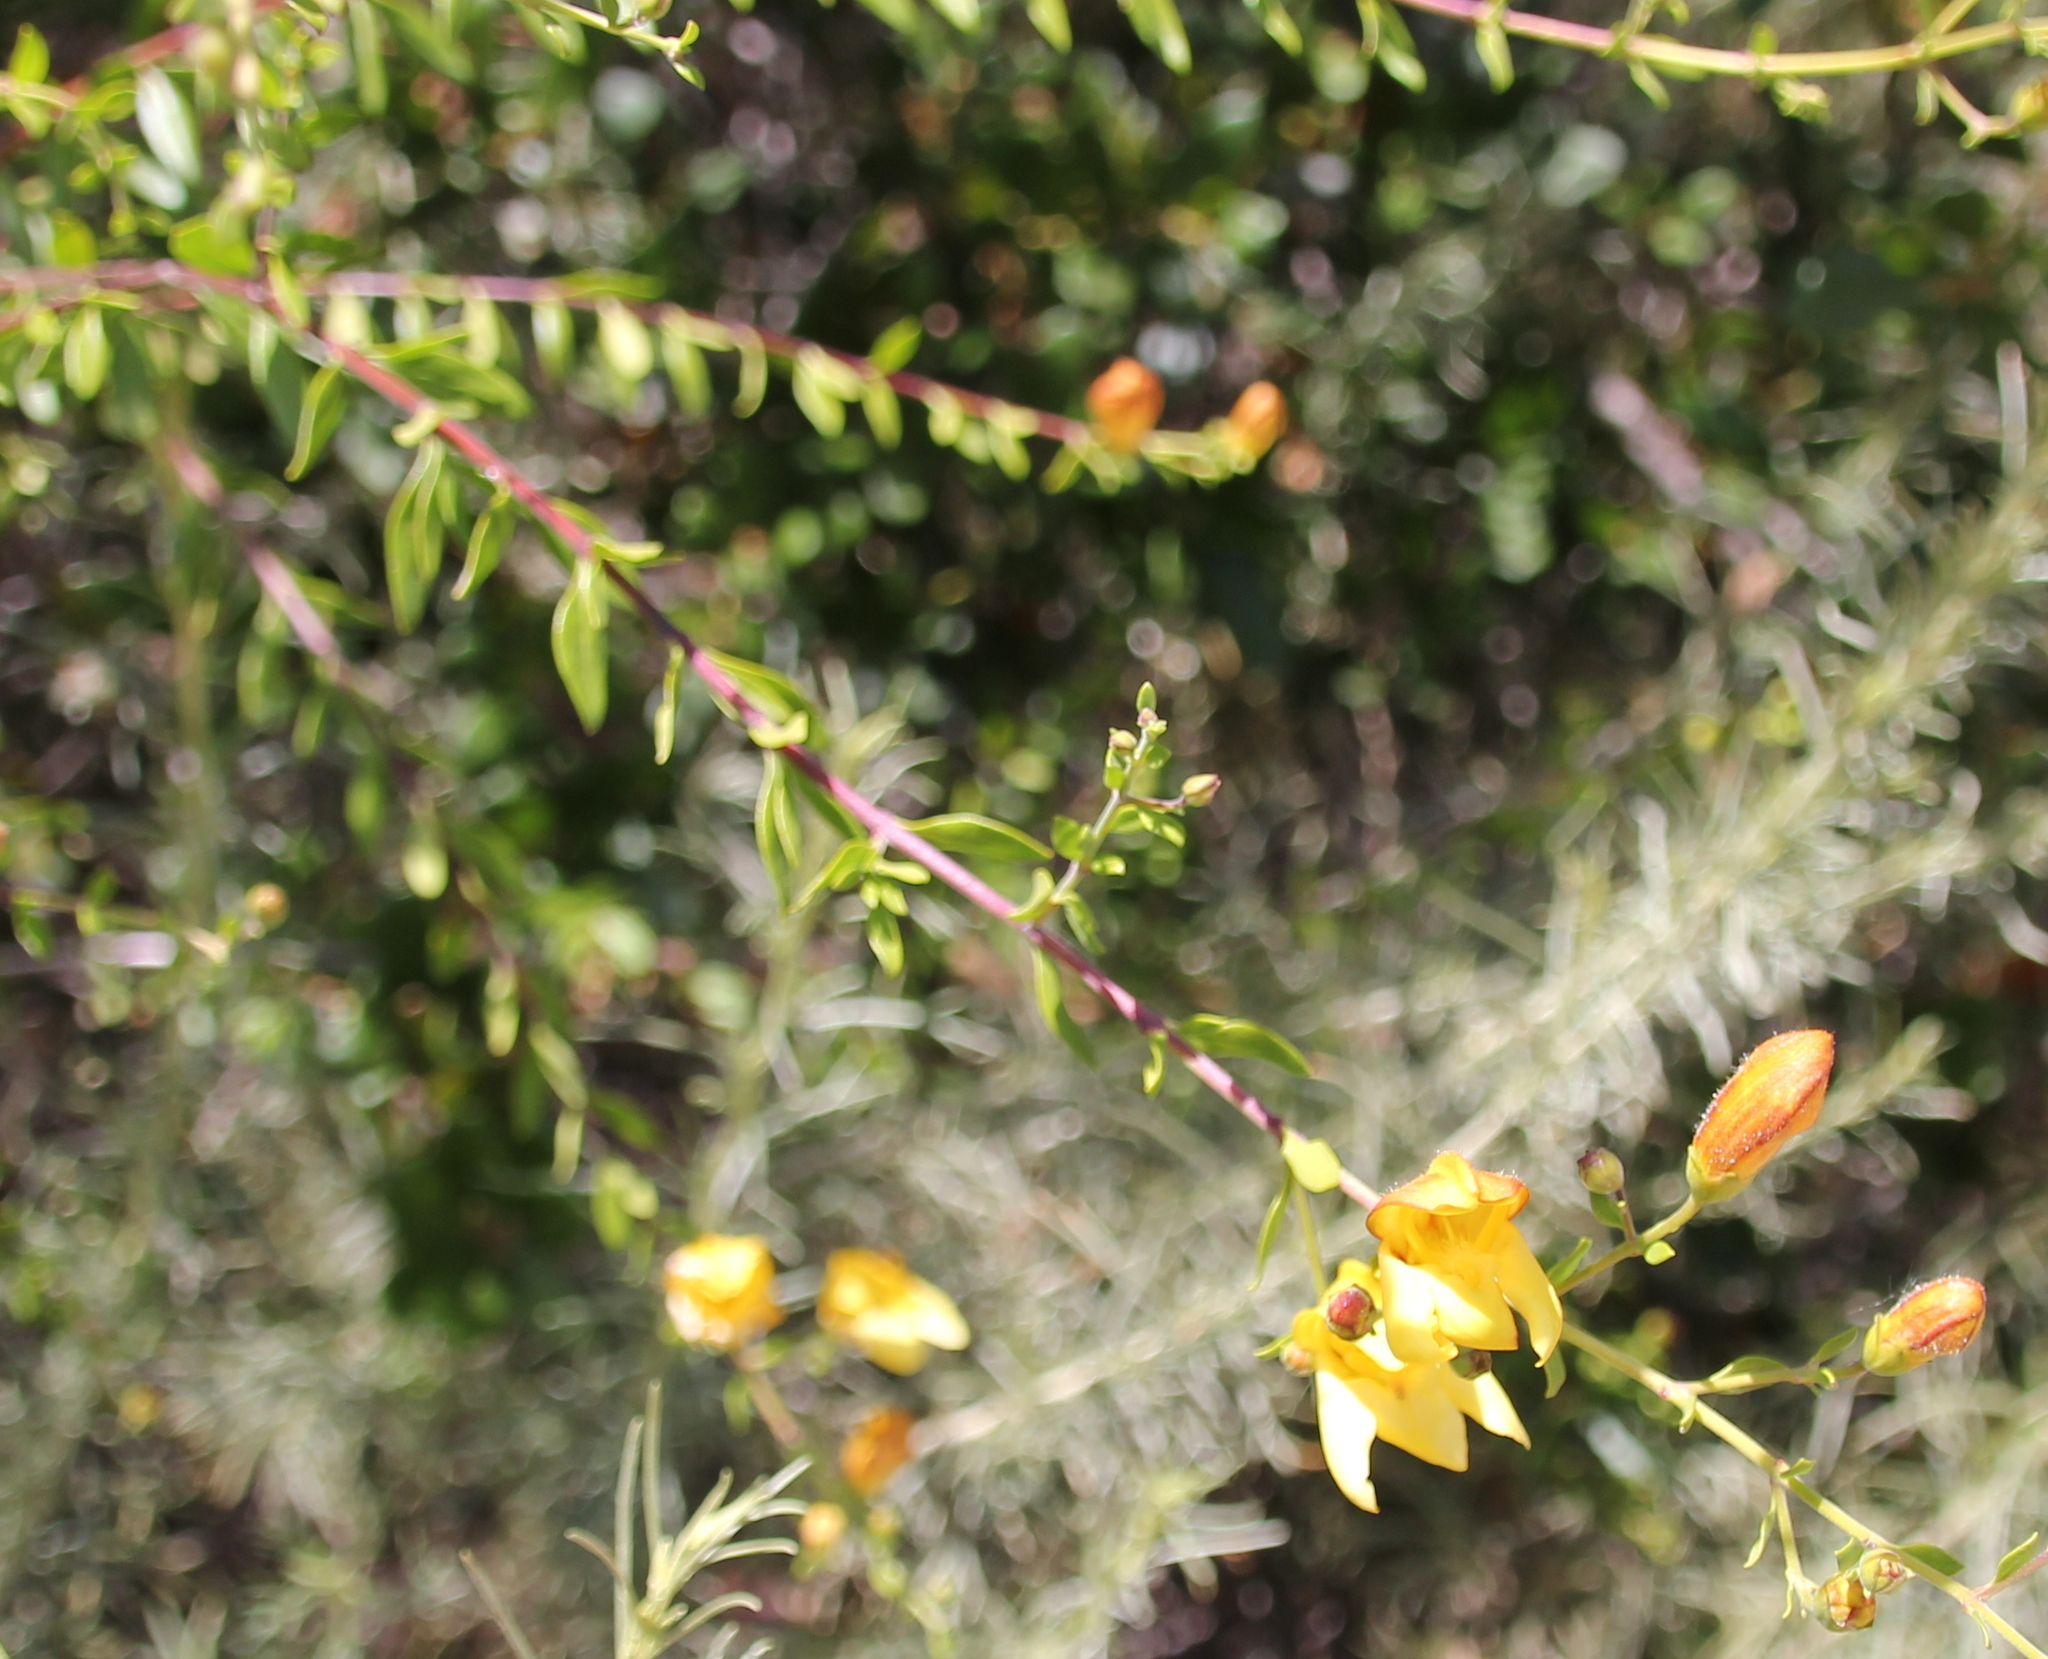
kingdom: Plantae
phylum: Tracheophyta
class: Magnoliopsida
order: Lamiales
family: Plantaginaceae
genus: Keckiella
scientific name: Keckiella antirrhinoides
